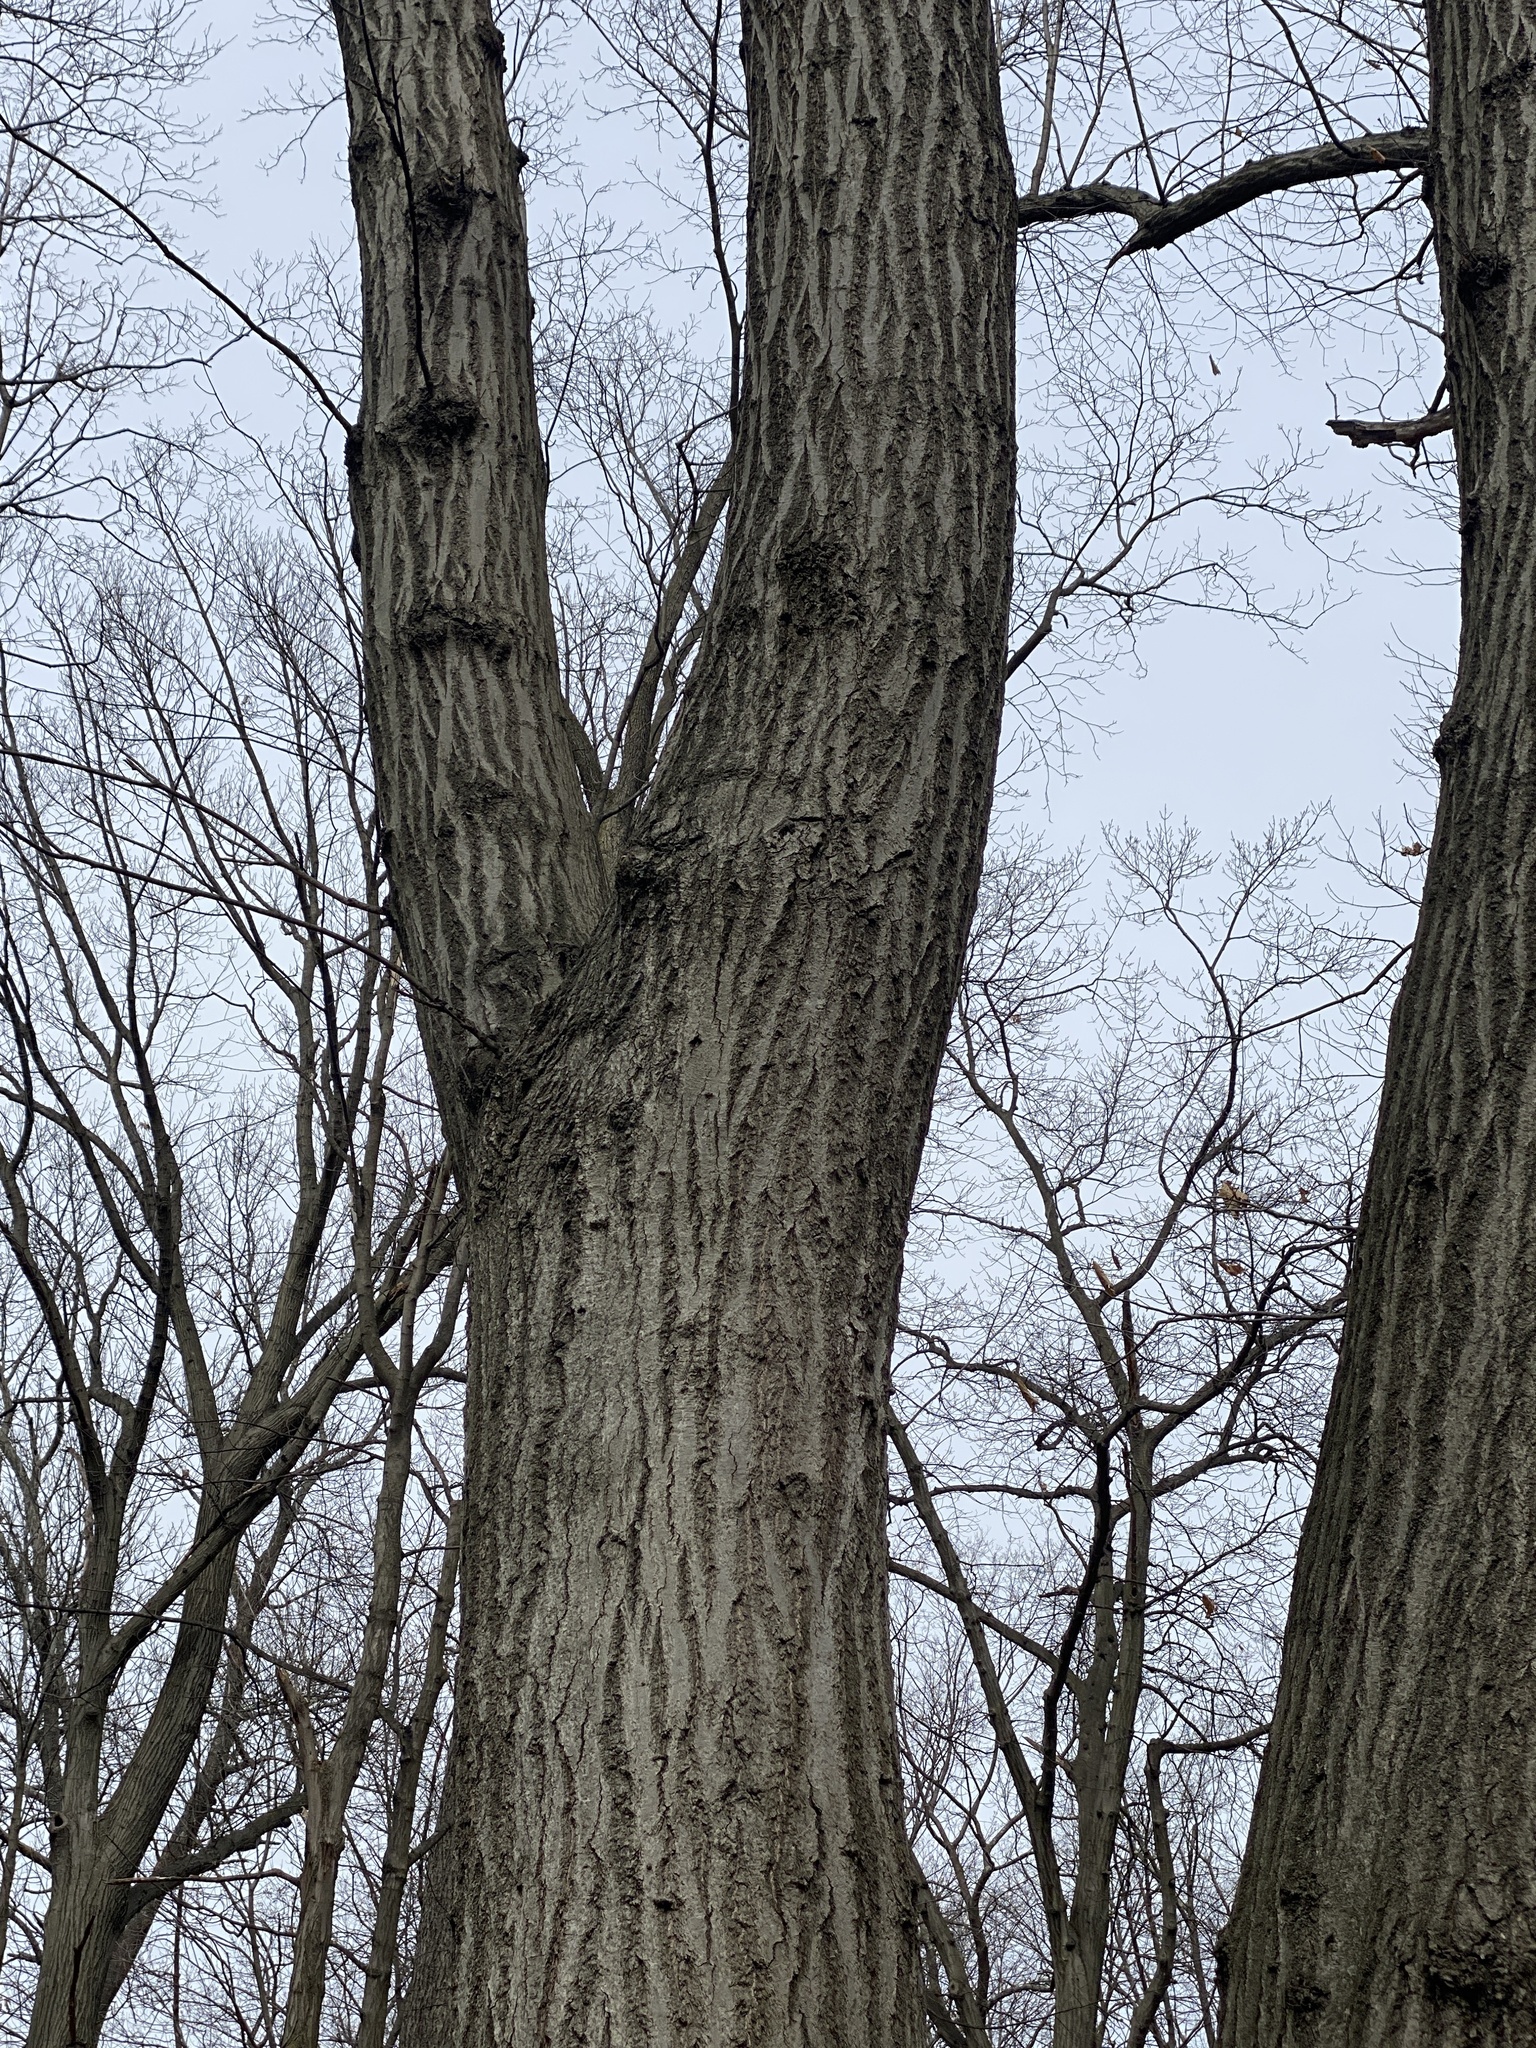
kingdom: Plantae
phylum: Tracheophyta
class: Magnoliopsida
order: Fagales
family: Fagaceae
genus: Quercus
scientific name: Quercus rubra
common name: Red oak
